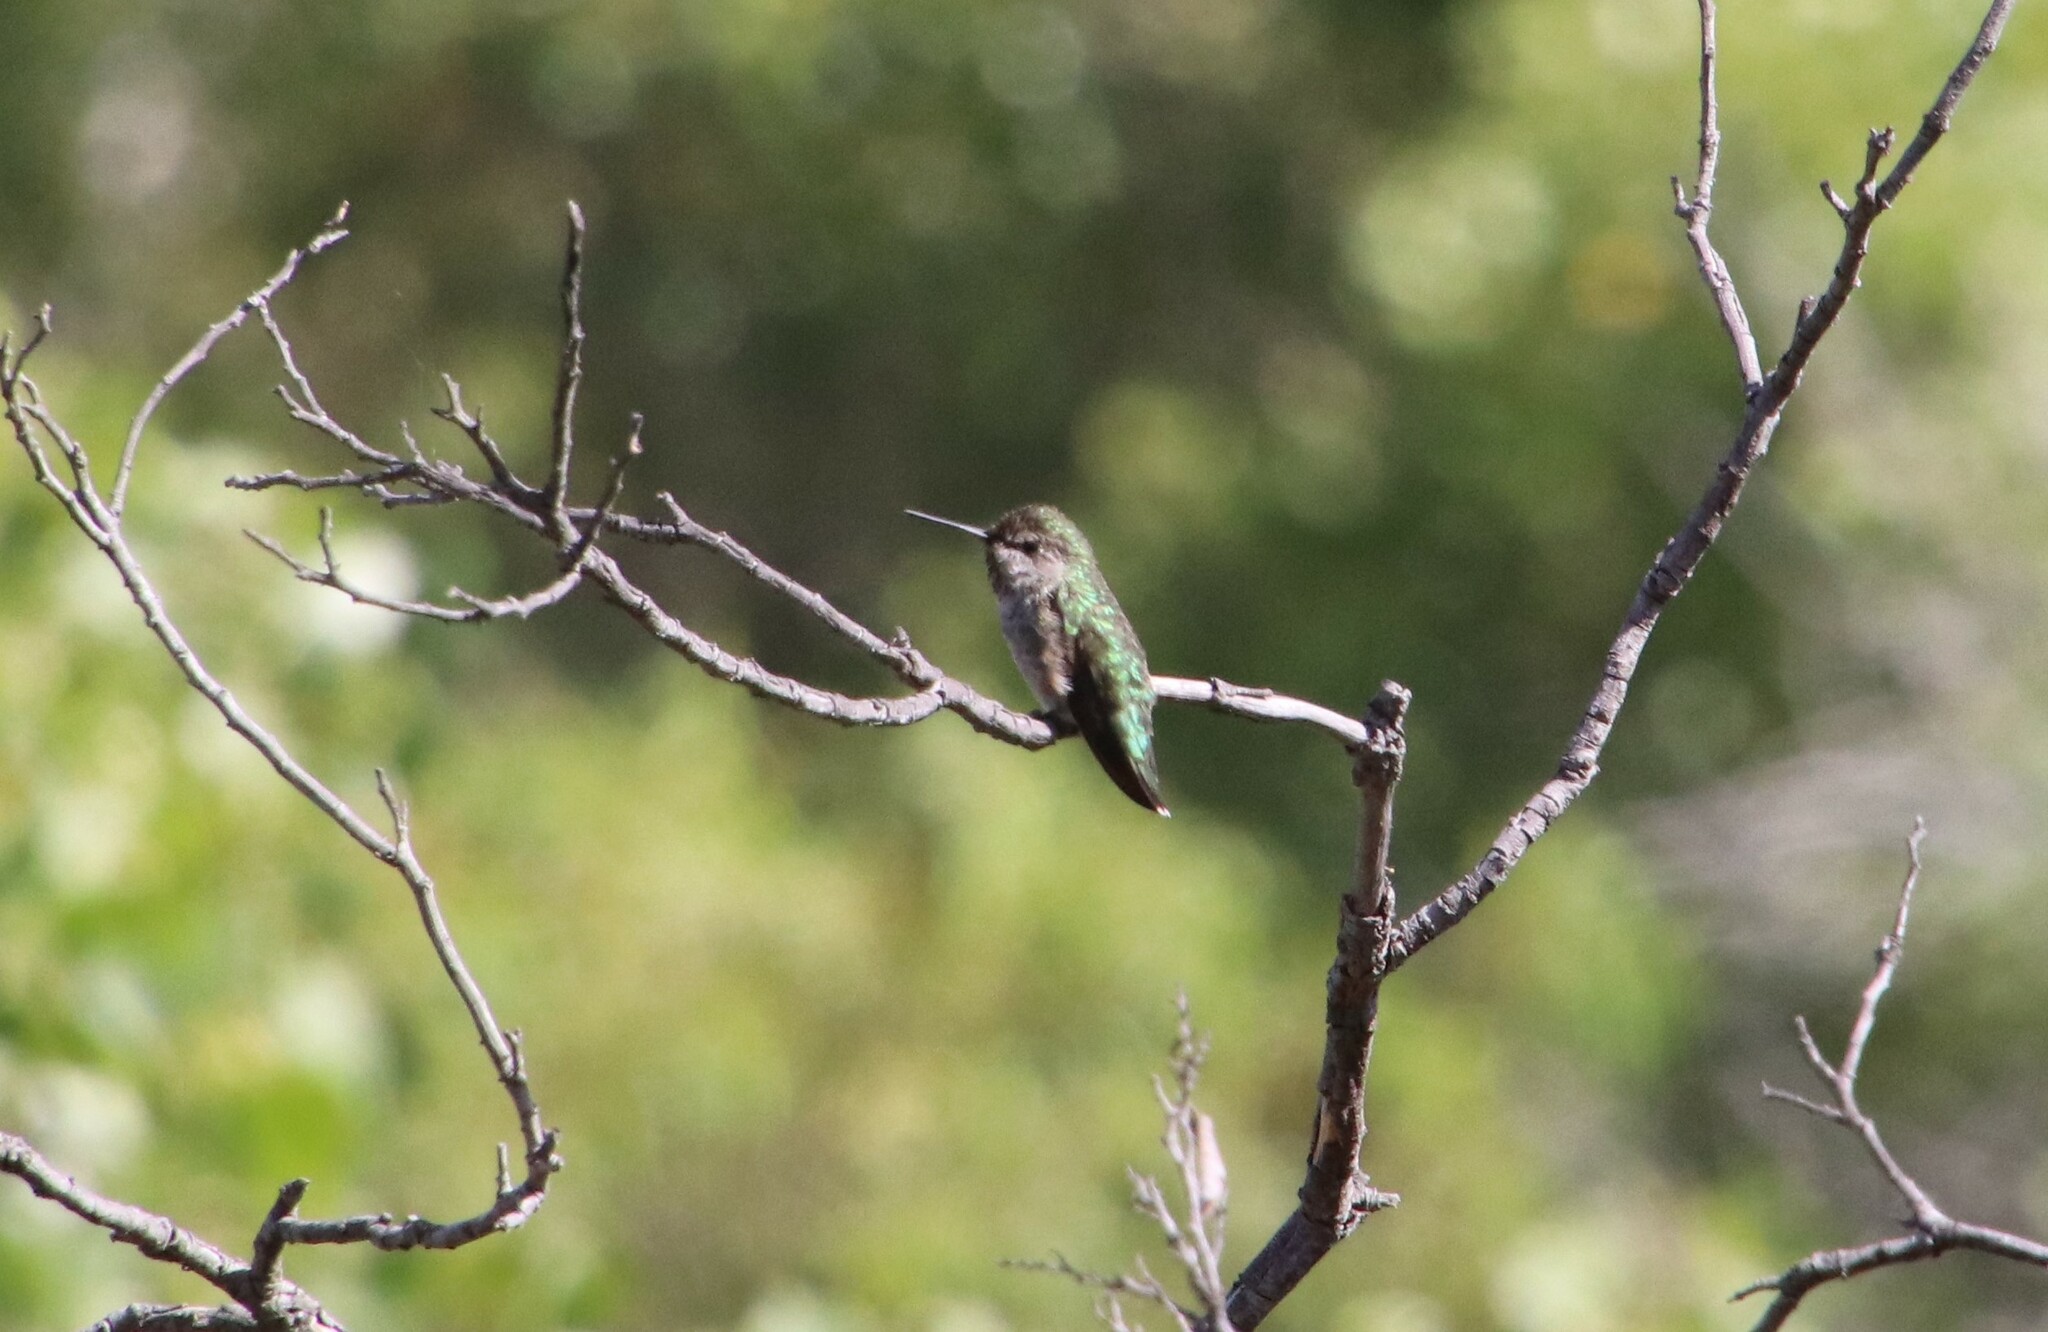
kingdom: Animalia
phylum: Chordata
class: Aves
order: Apodiformes
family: Trochilidae
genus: Calypte
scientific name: Calypte anna
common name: Anna's hummingbird
